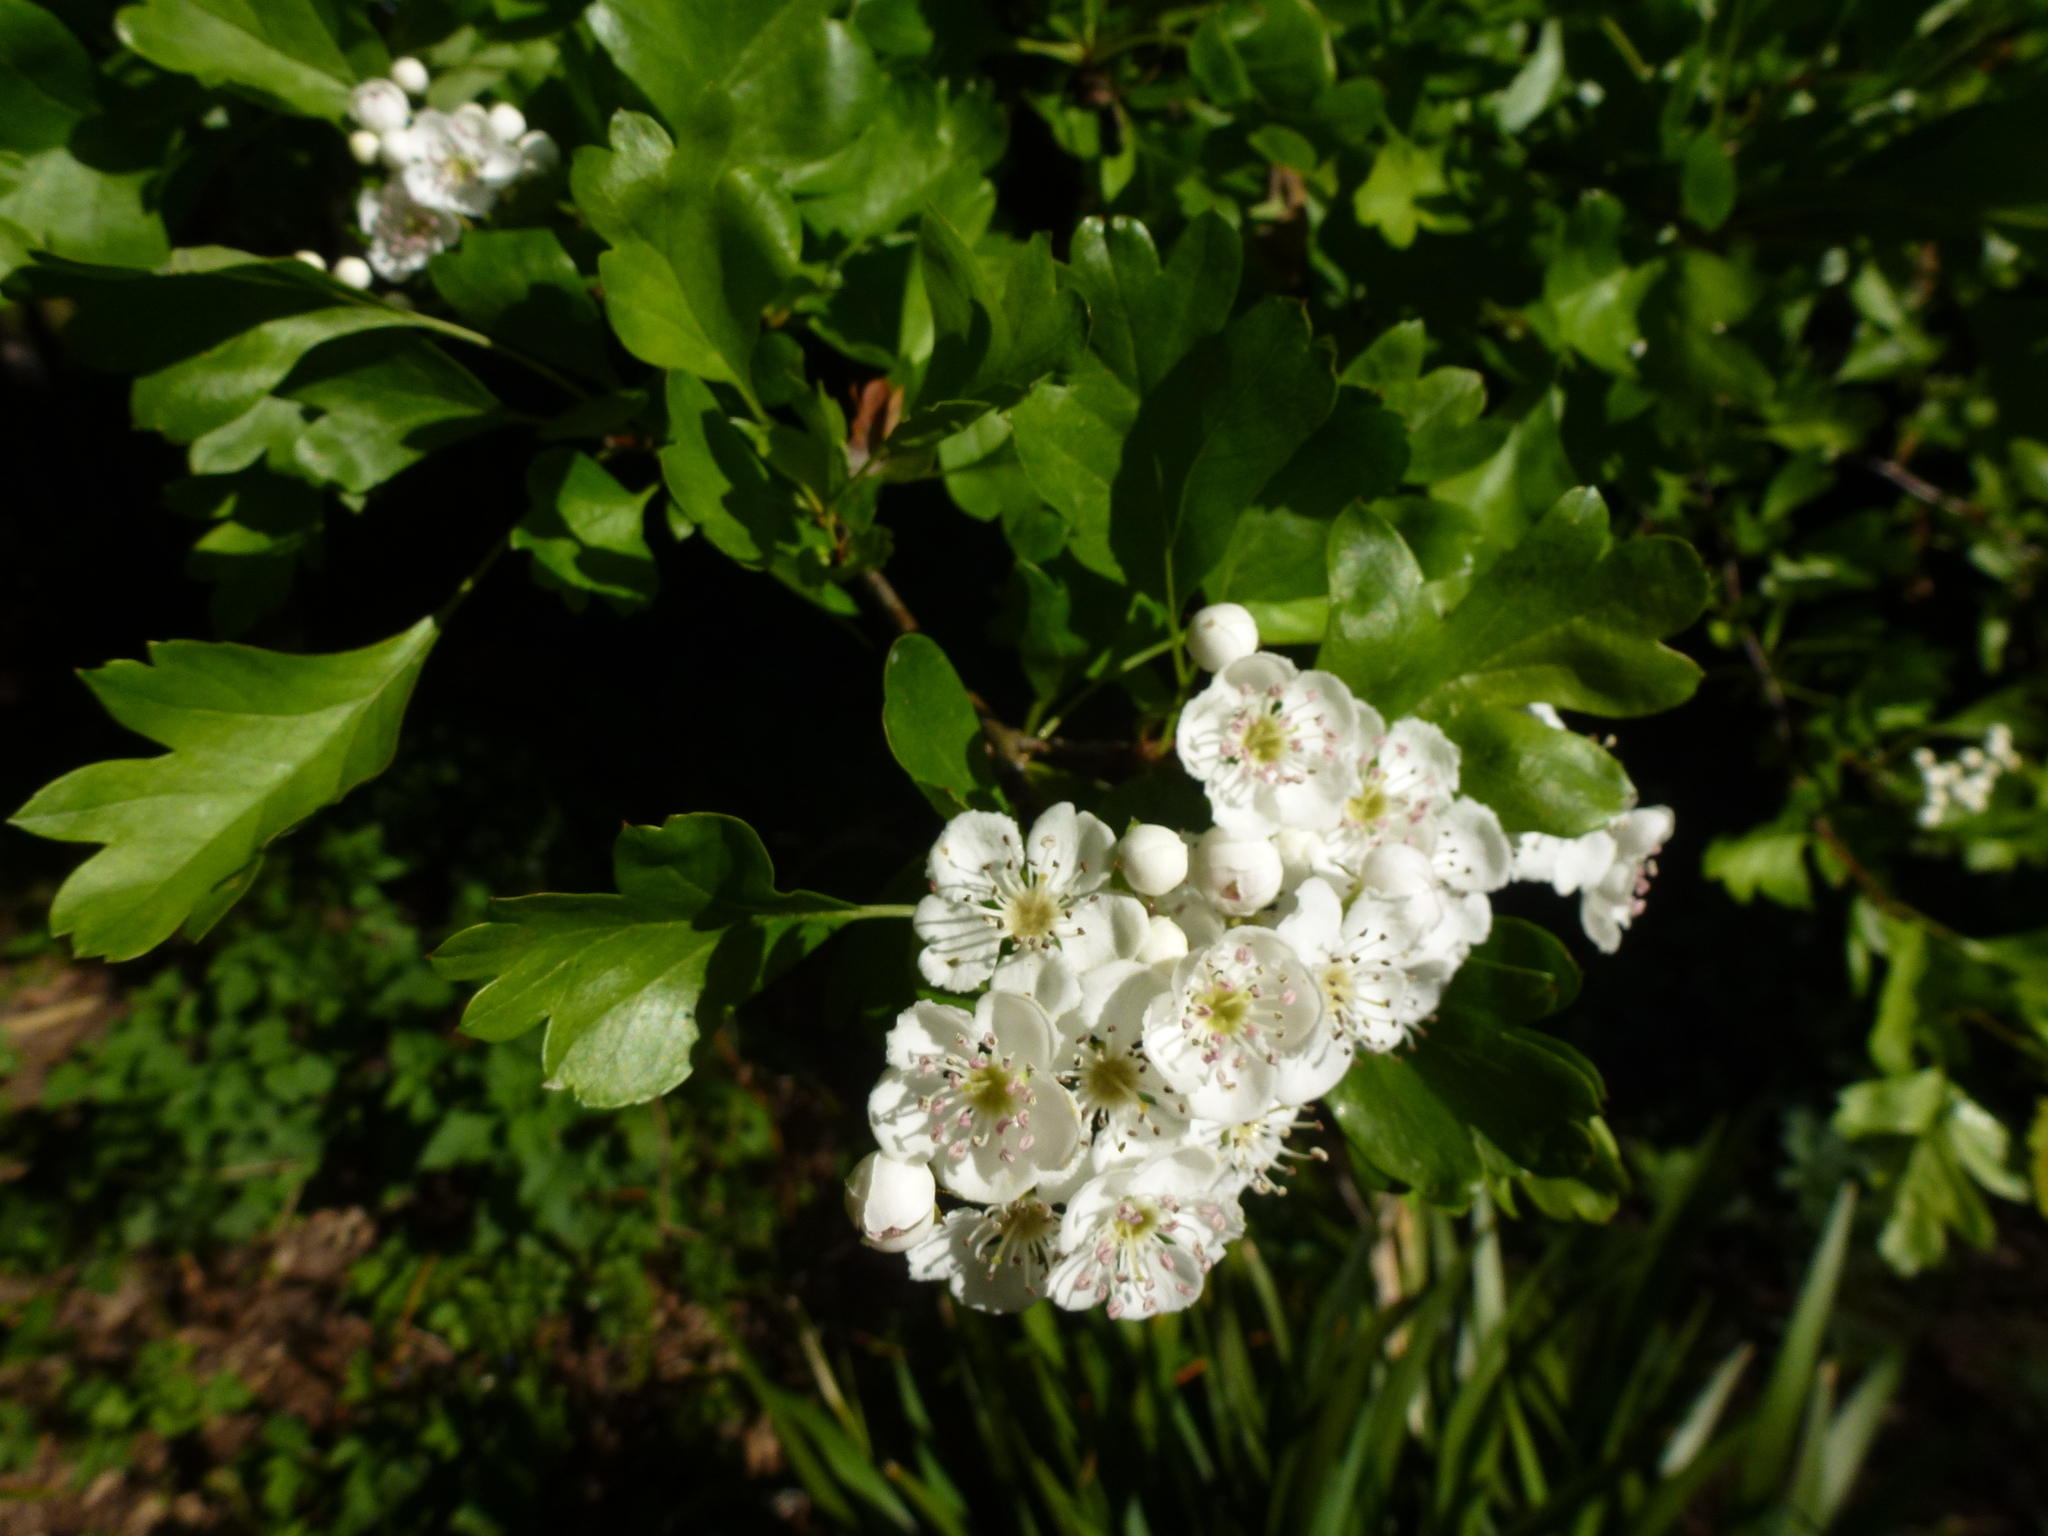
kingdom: Plantae
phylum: Tracheophyta
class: Magnoliopsida
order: Rosales
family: Rosaceae
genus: Crataegus
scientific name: Crataegus monogyna
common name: Hawthorn
